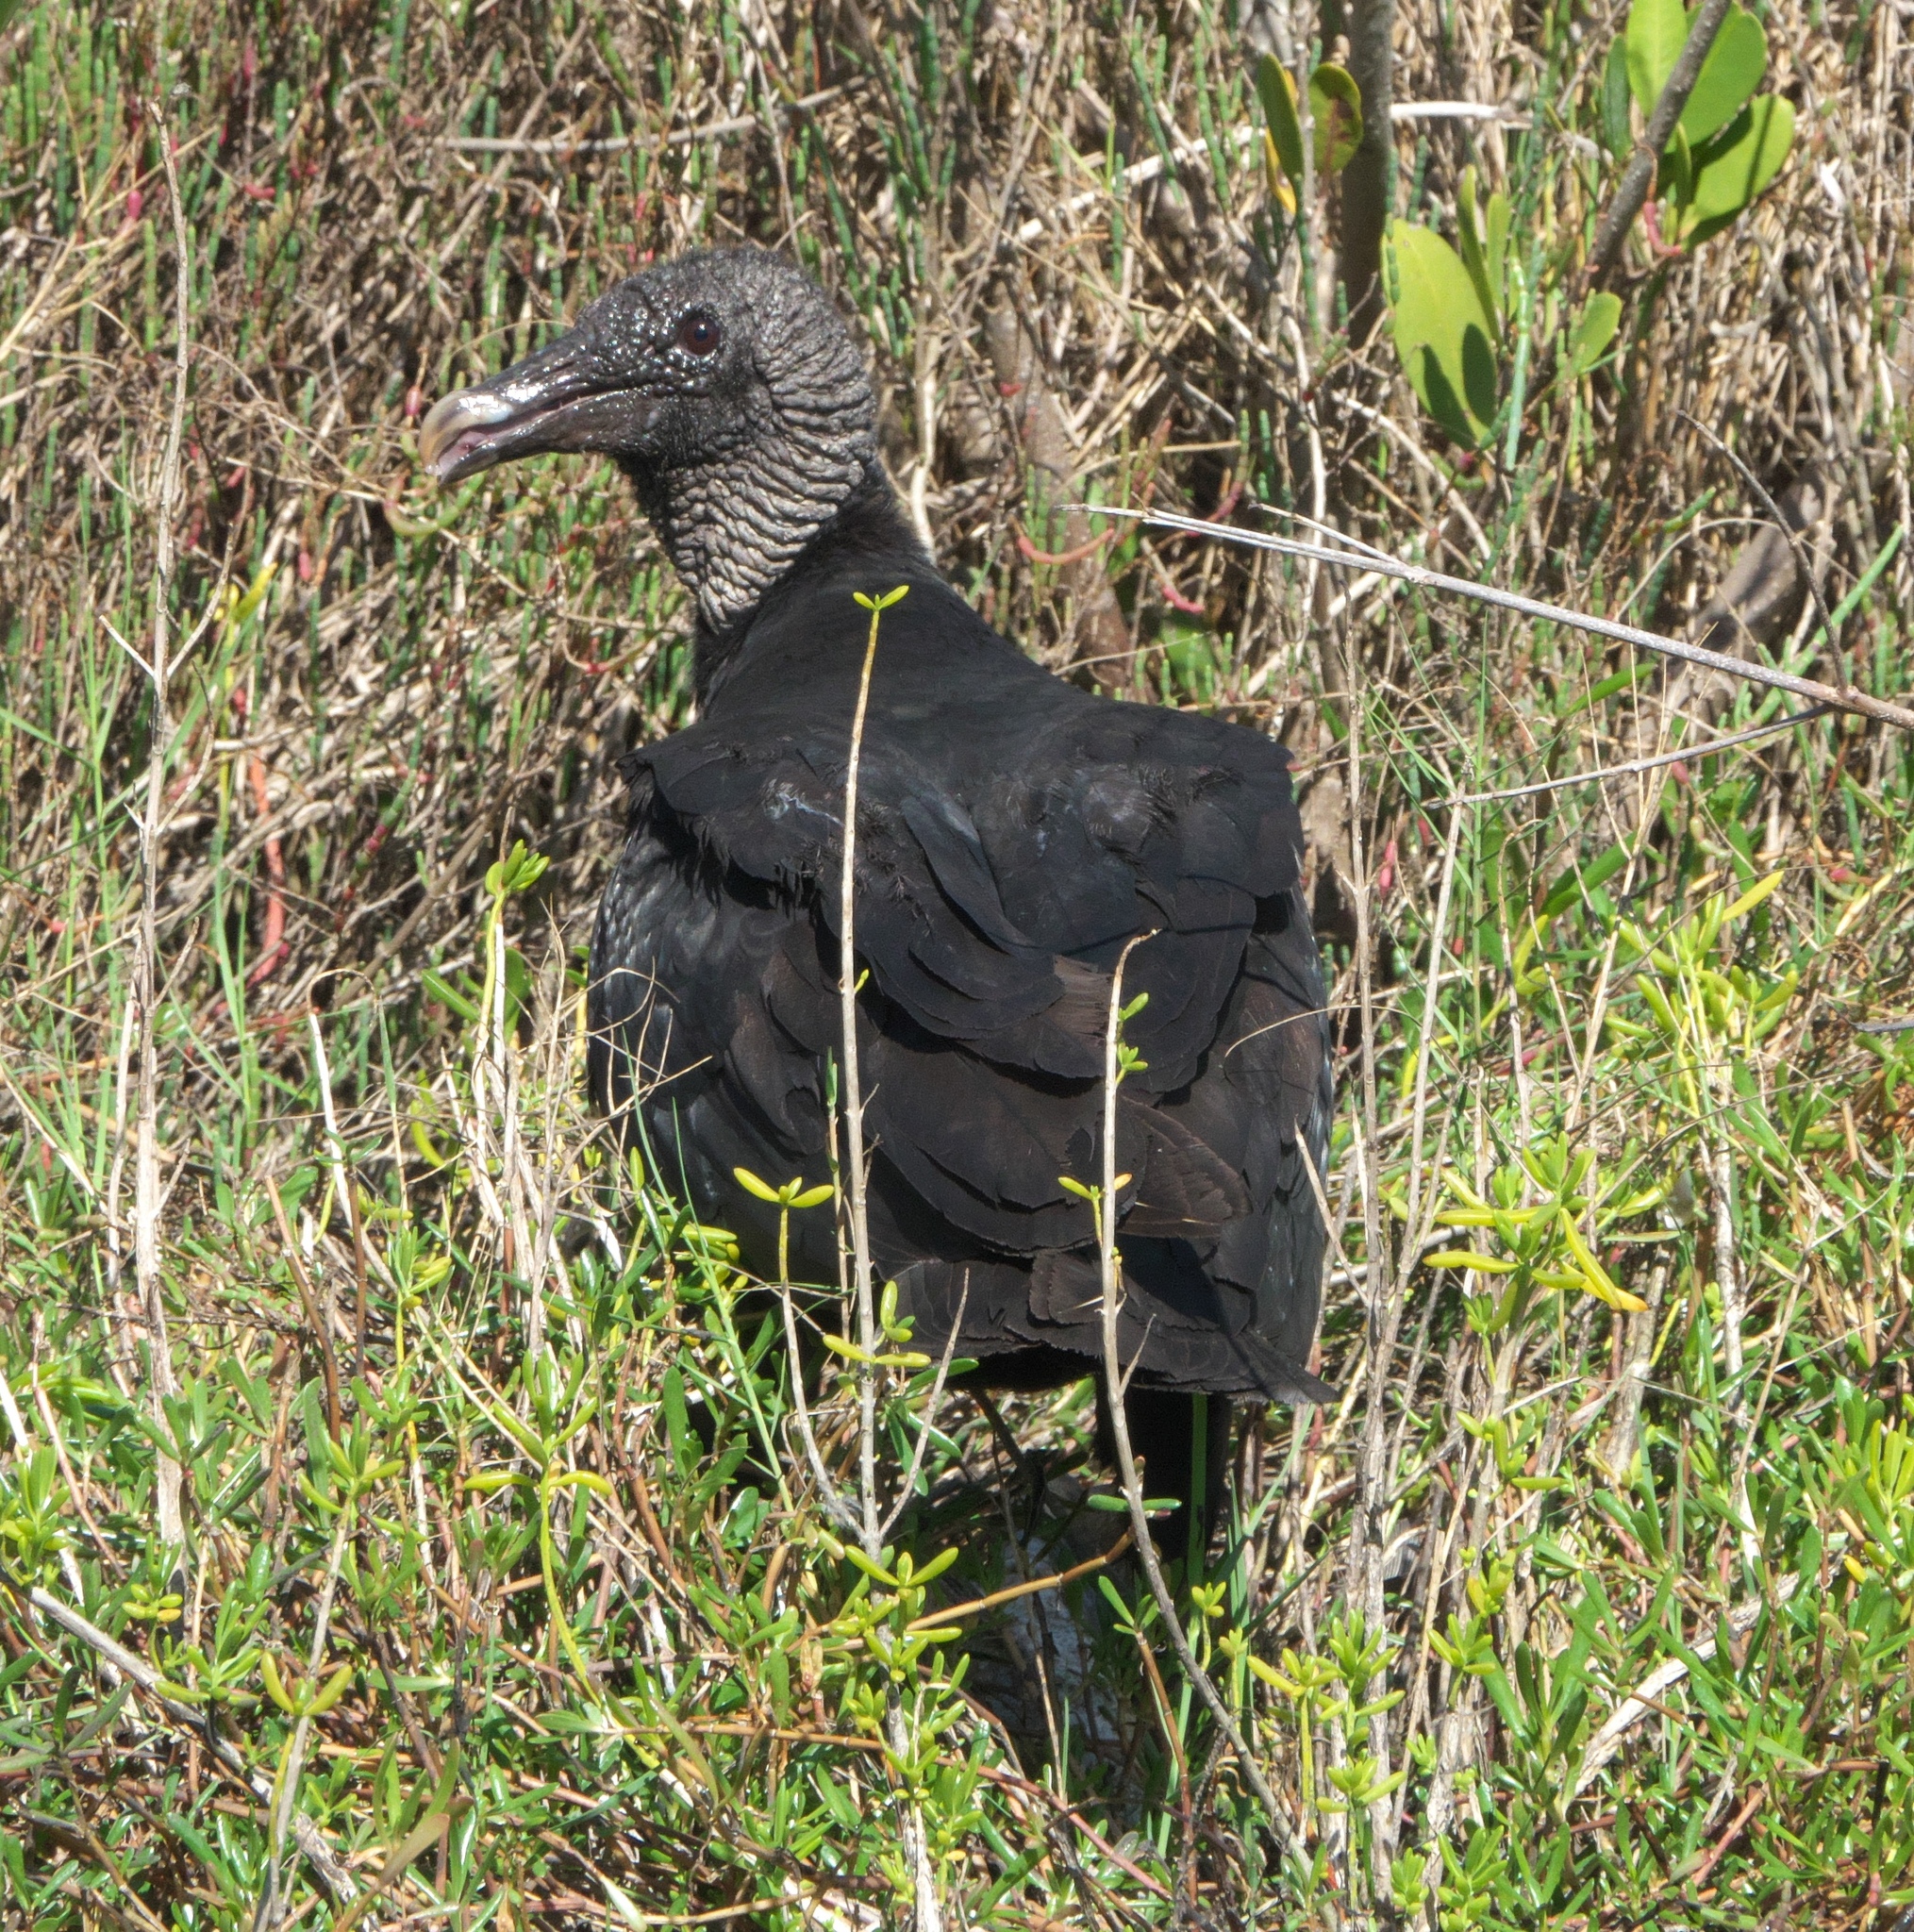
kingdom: Animalia
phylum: Chordata
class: Aves
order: Accipitriformes
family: Cathartidae
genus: Coragyps
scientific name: Coragyps atratus
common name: Black vulture
